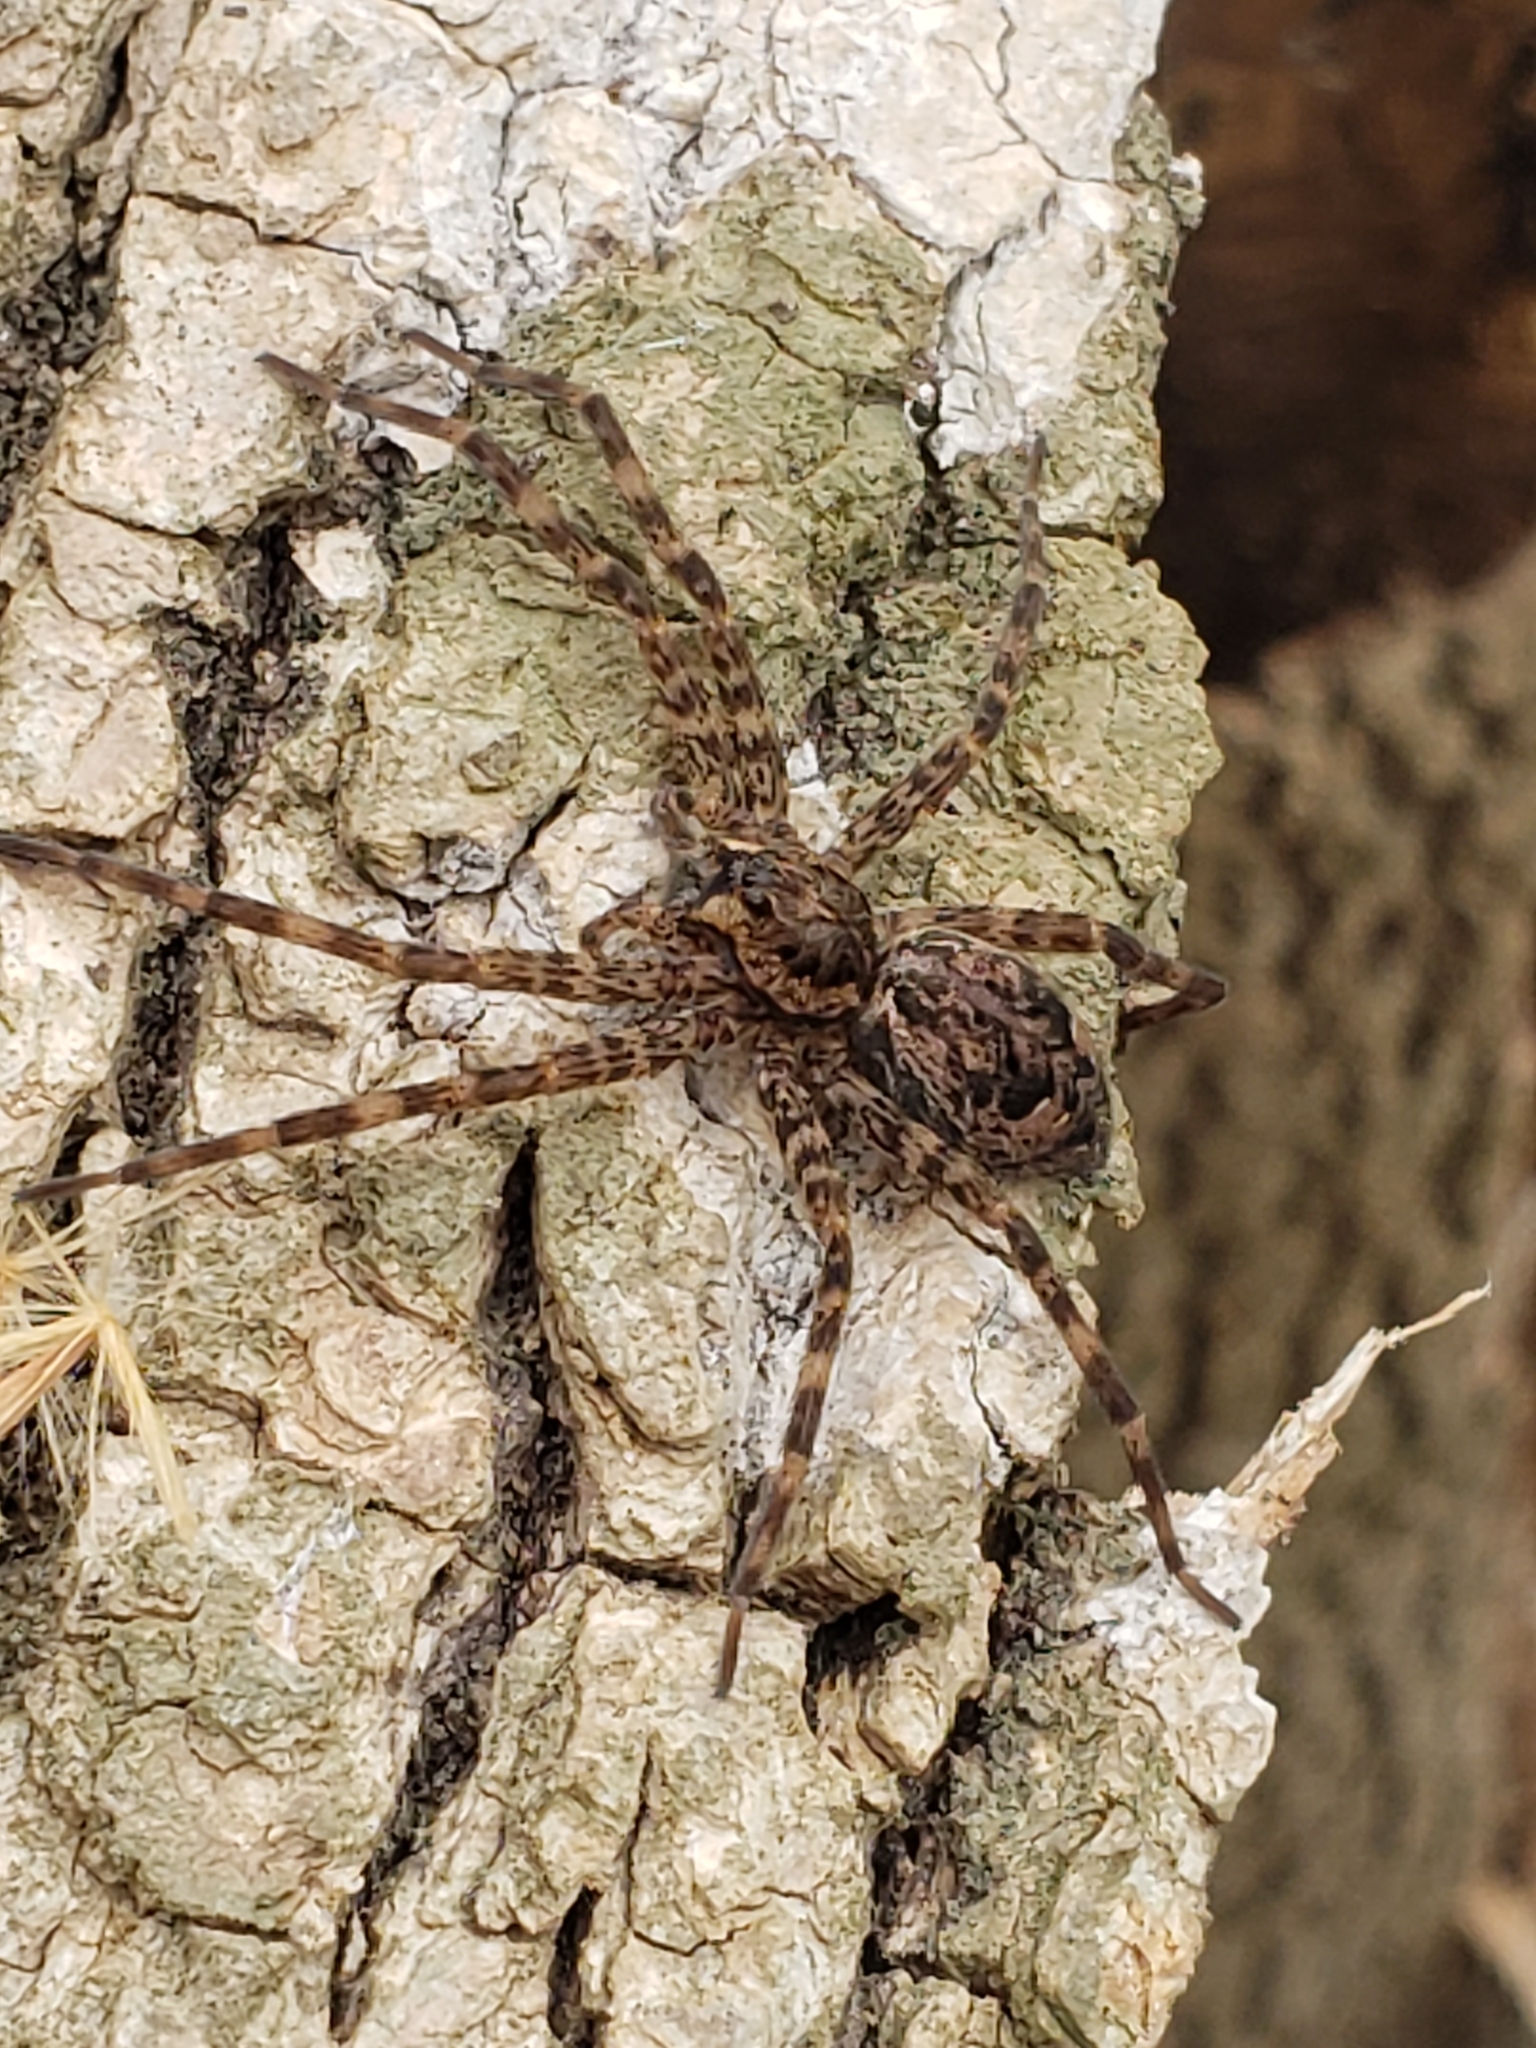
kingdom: Animalia
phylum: Arthropoda
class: Arachnida
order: Araneae
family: Pisauridae
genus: Dolomedes
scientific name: Dolomedes tenebrosus
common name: Dark fishing spider
